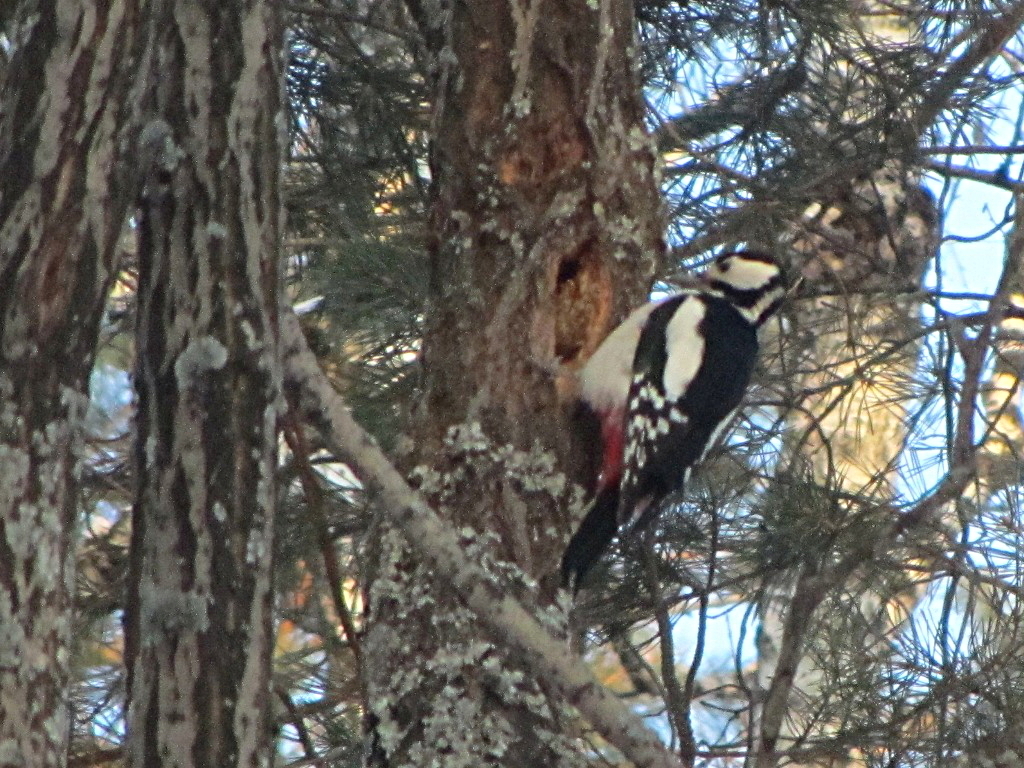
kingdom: Animalia
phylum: Chordata
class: Aves
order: Piciformes
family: Picidae
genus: Dendrocopos
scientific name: Dendrocopos major
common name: Great spotted woodpecker
